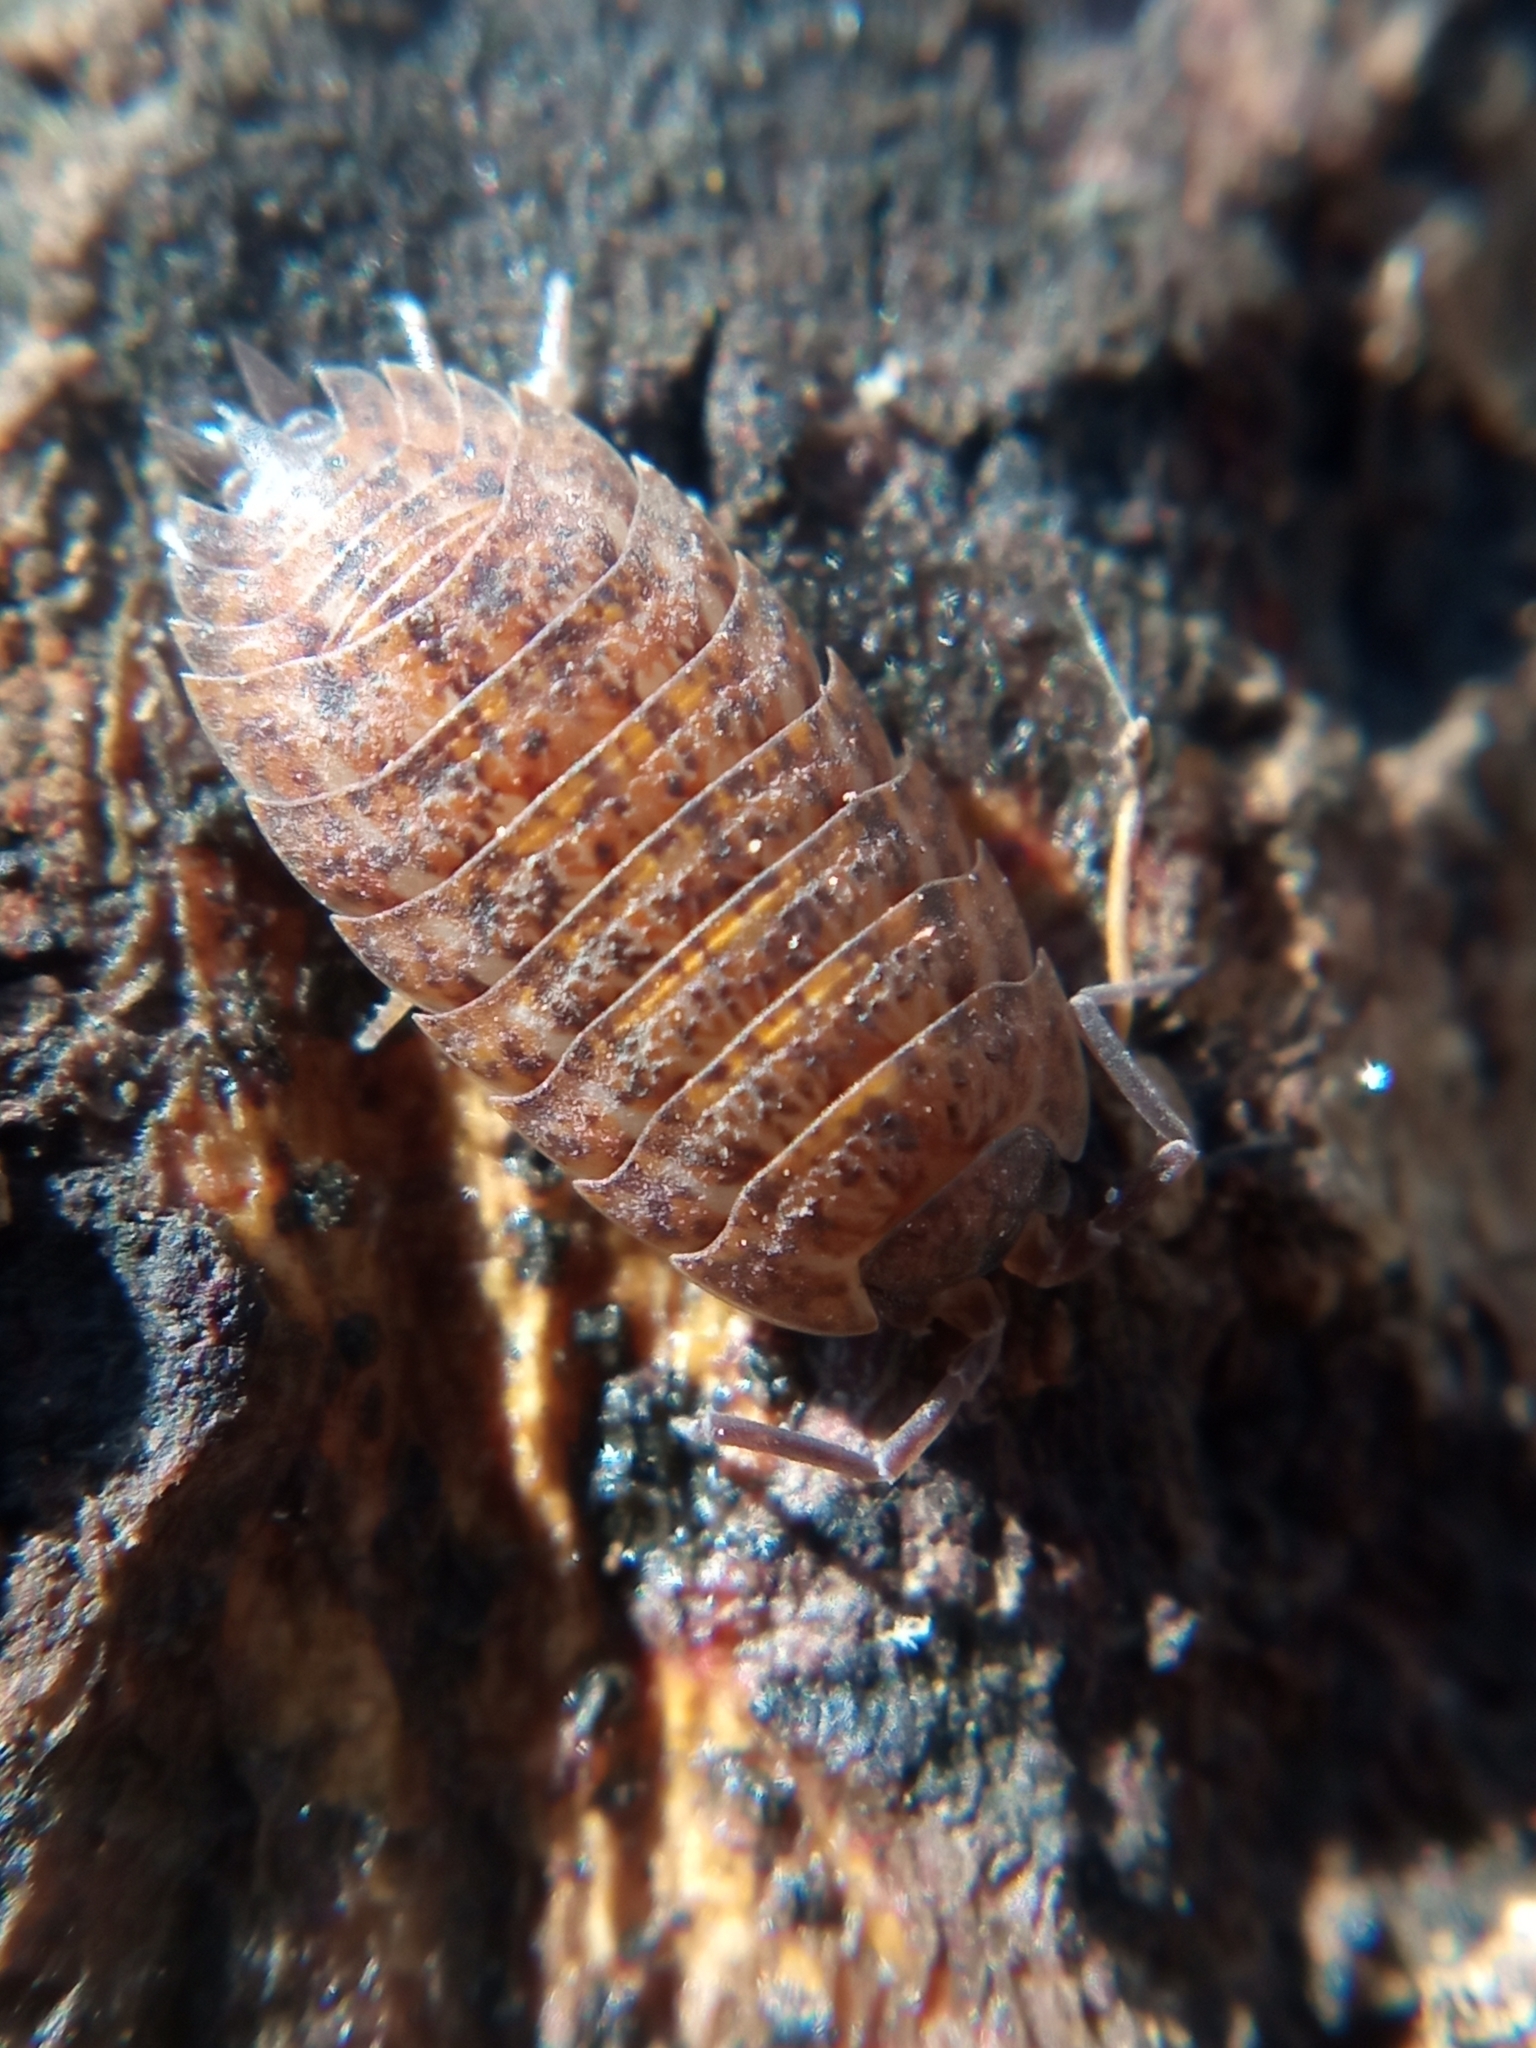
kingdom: Animalia
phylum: Arthropoda
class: Malacostraca
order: Isopoda
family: Trachelipodidae
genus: Trachelipus
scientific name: Trachelipus rathkii
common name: Isopod
